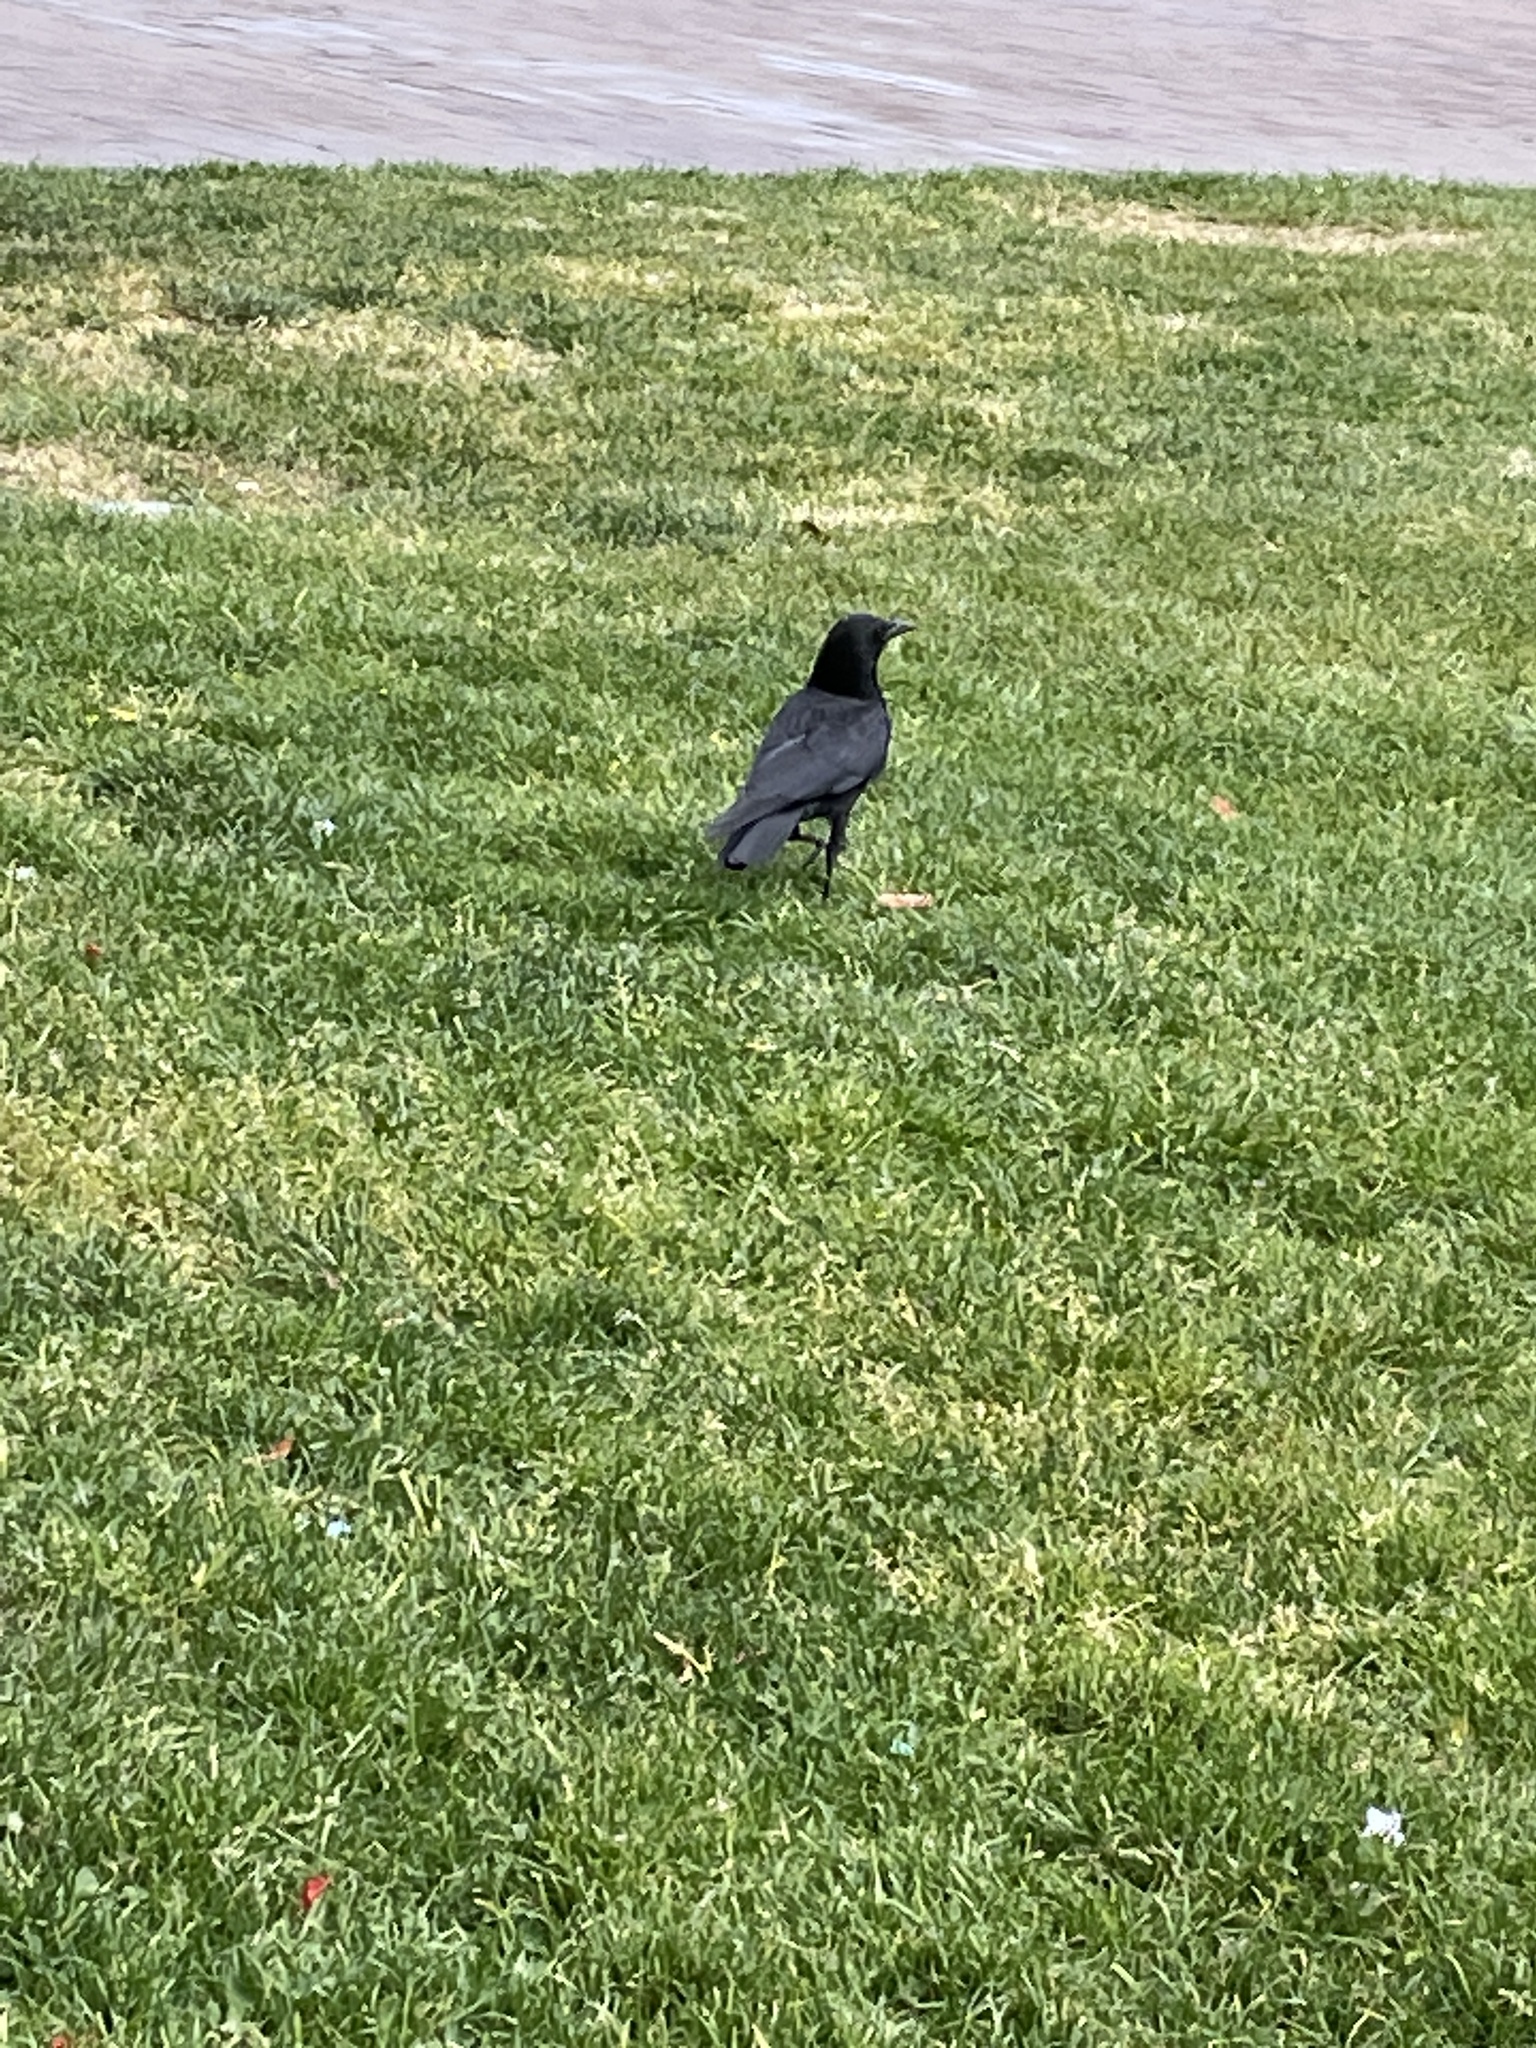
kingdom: Animalia
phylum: Chordata
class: Aves
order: Passeriformes
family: Corvidae
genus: Corvus
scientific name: Corvus brachyrhynchos
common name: American crow
